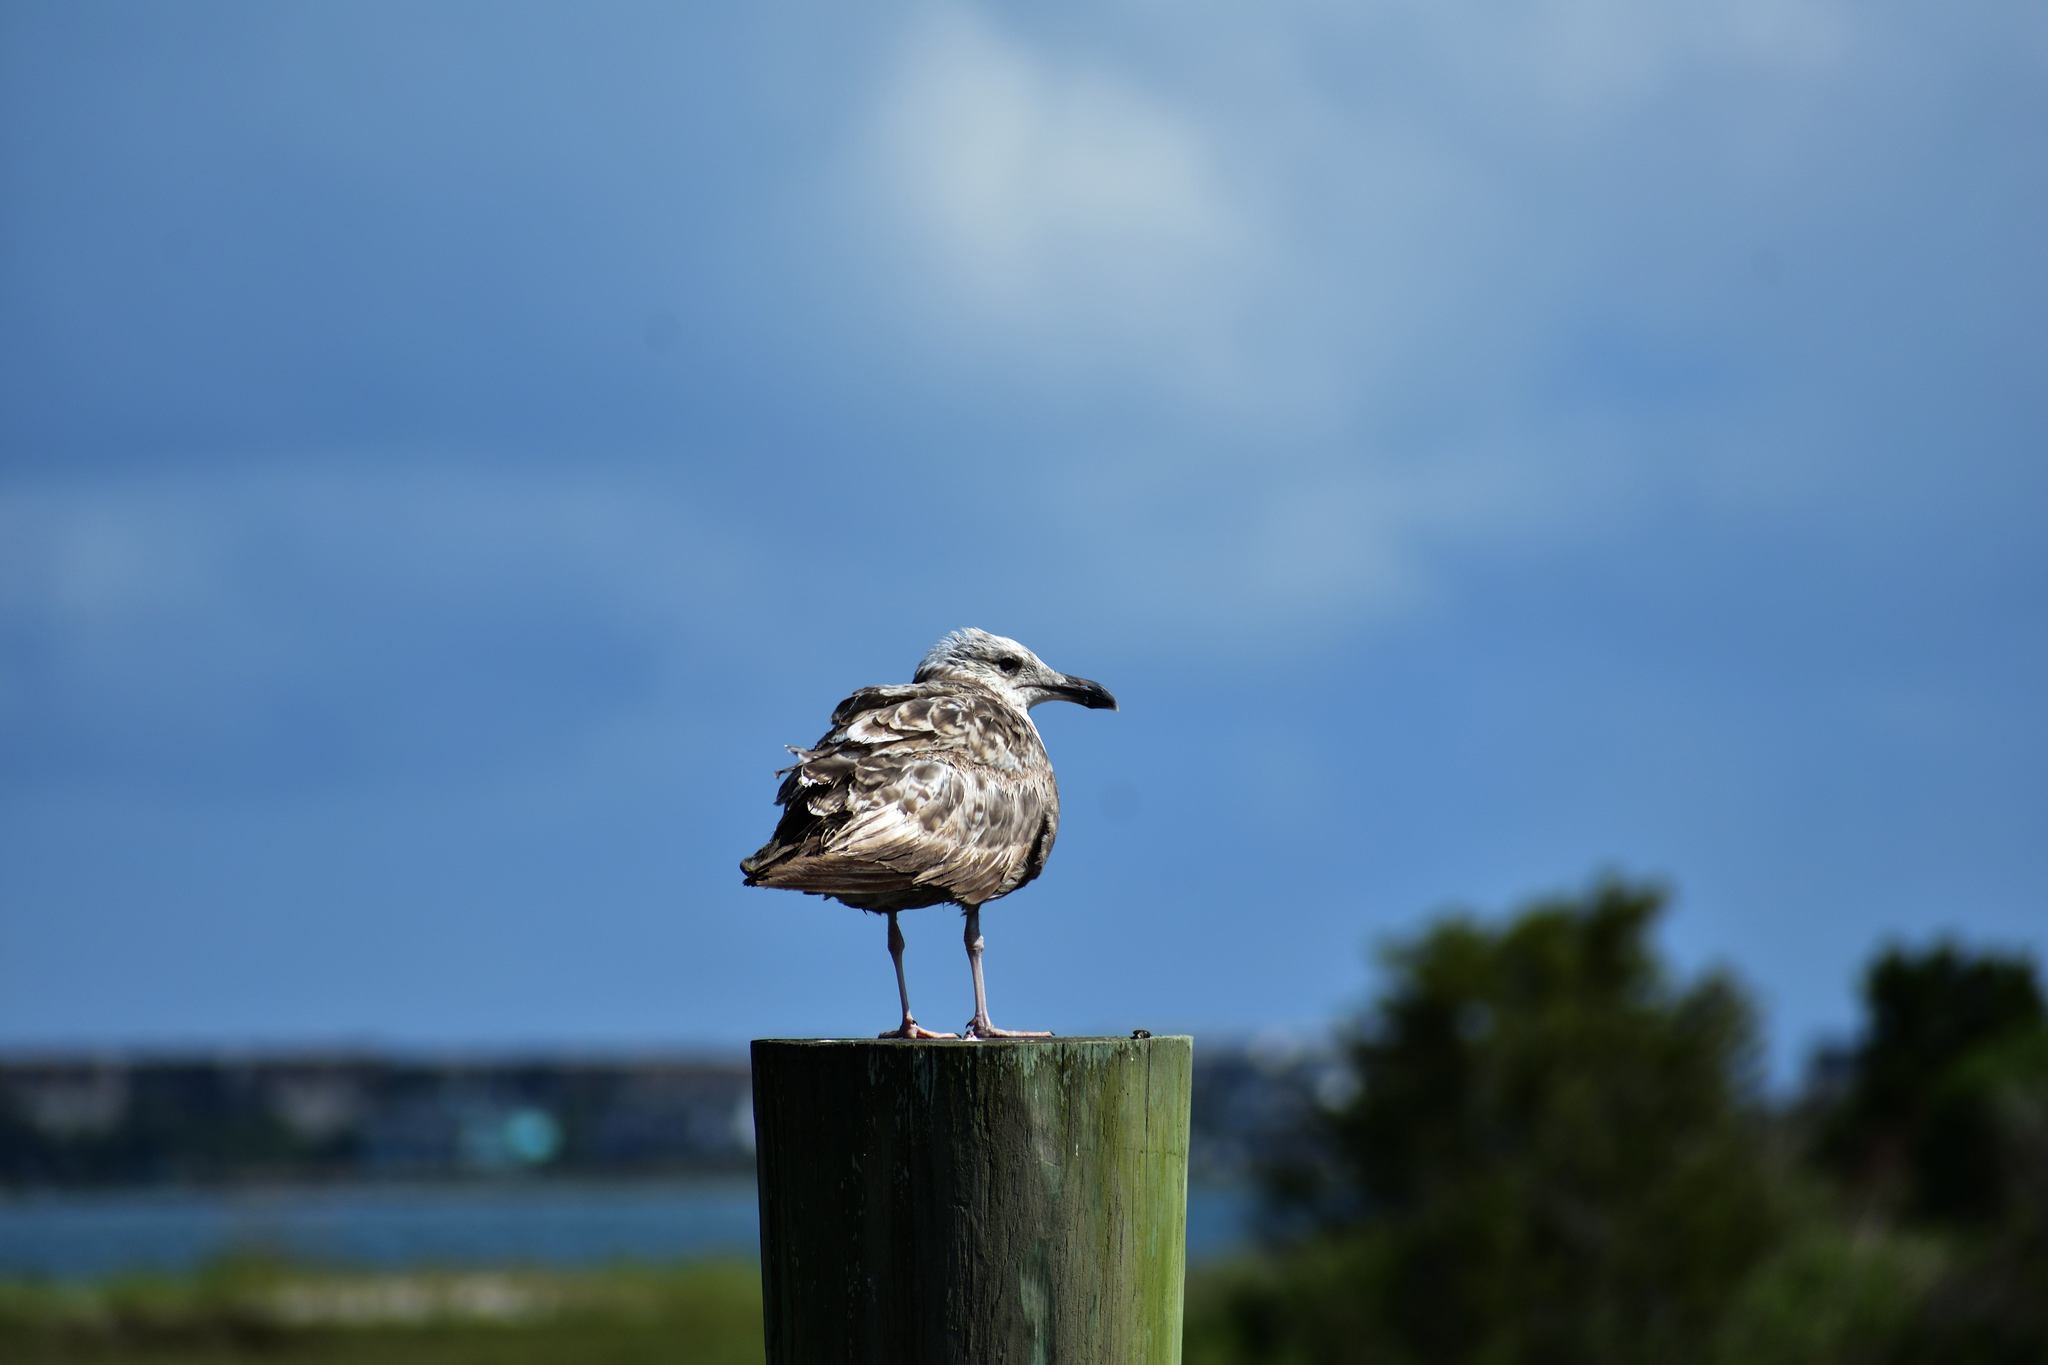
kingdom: Animalia
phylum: Chordata
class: Aves
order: Charadriiformes
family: Laridae
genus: Larus
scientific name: Larus argentatus
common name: Herring gull
